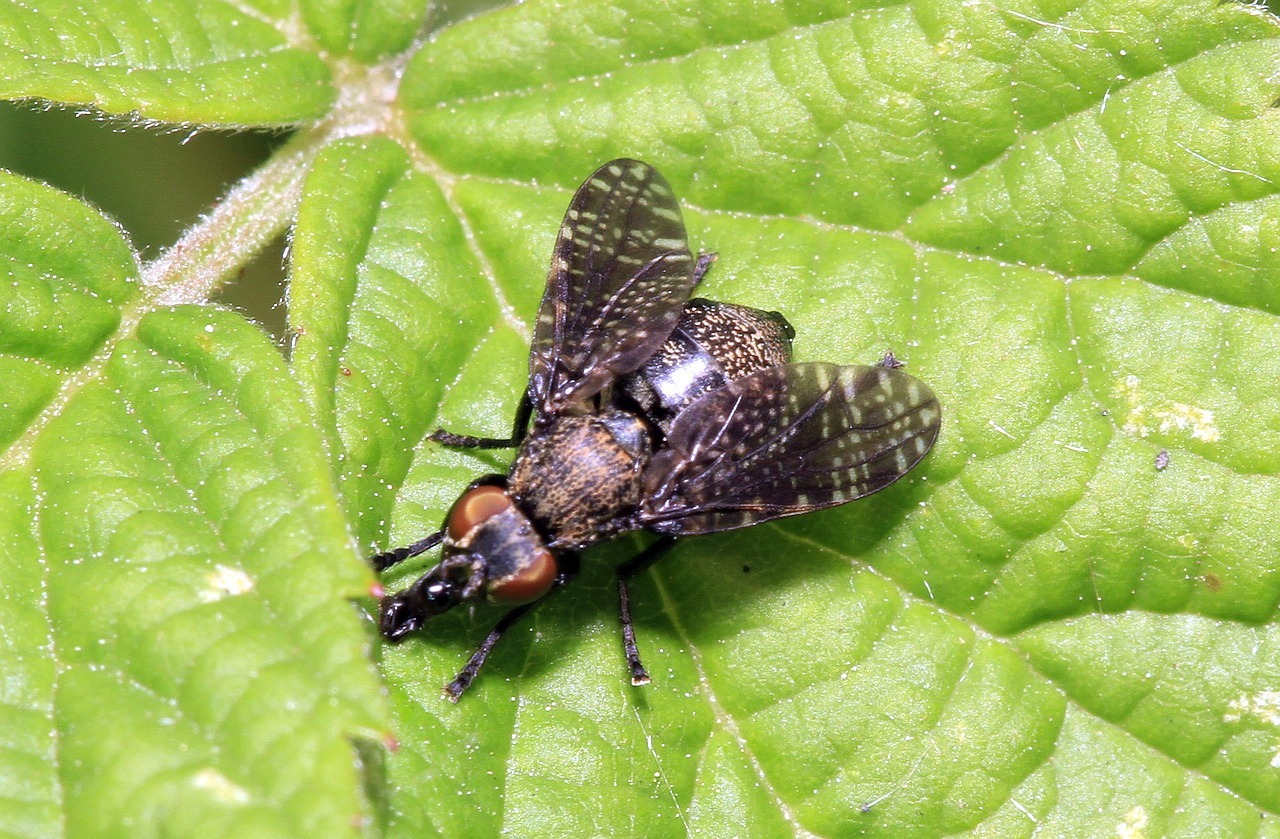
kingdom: Animalia
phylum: Arthropoda
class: Insecta
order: Diptera
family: Platystomatidae
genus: Platystoma
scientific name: Platystoma seminationis
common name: Fly
